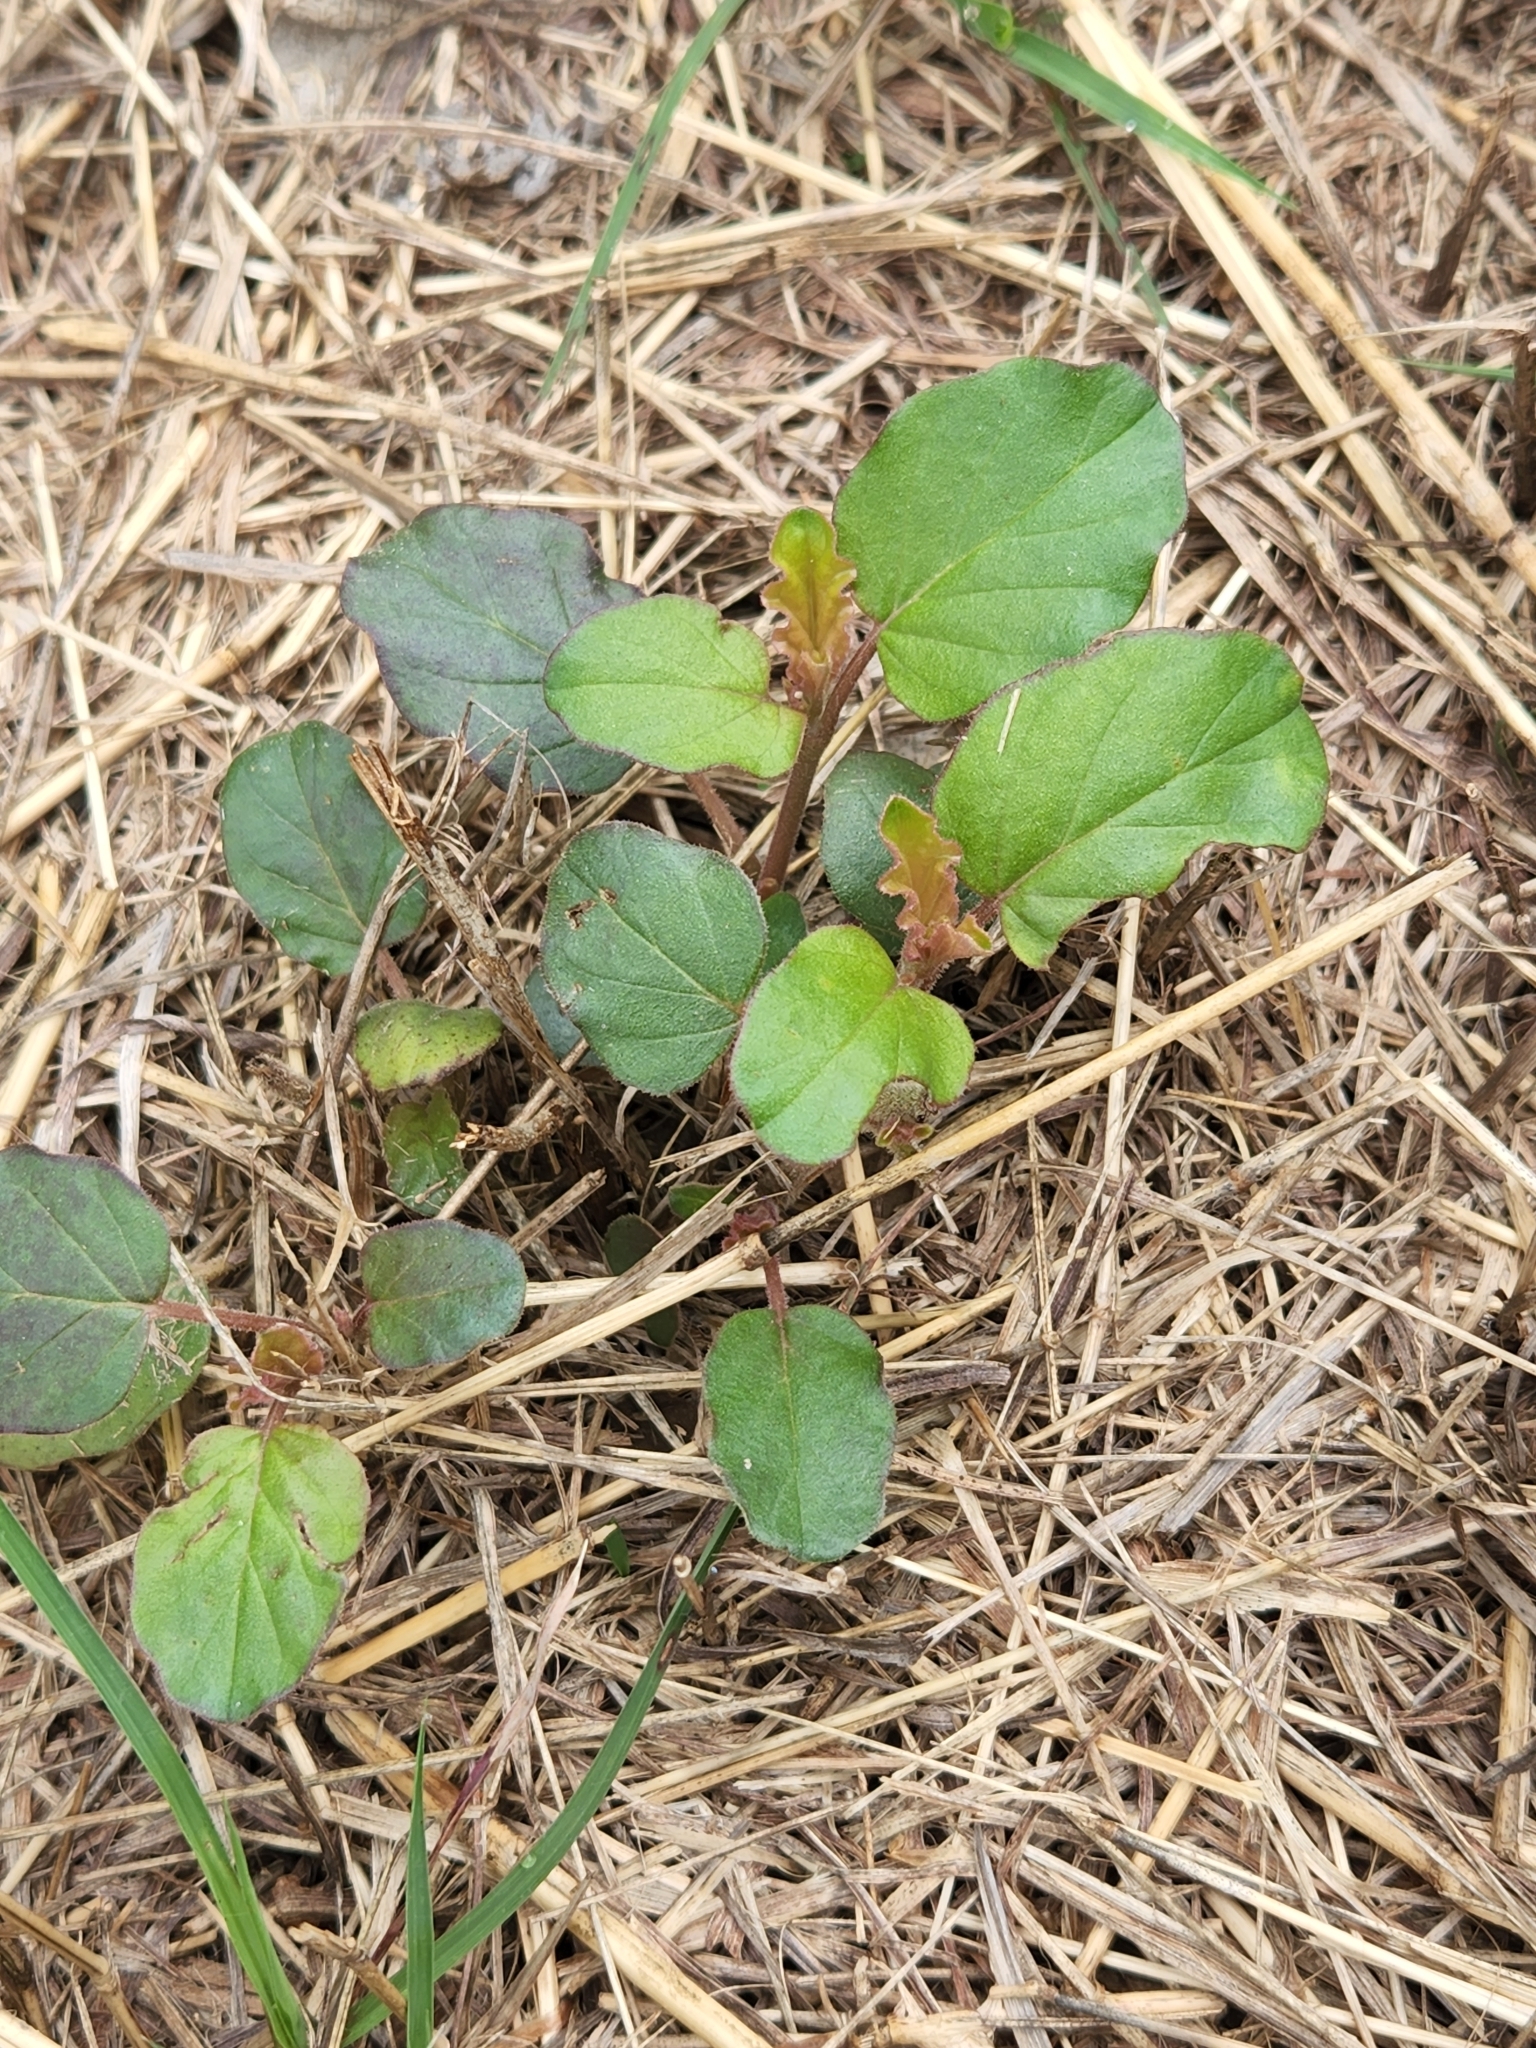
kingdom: Plantae
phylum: Tracheophyta
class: Magnoliopsida
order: Caryophyllales
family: Nyctaginaceae
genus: Boerhavia
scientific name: Boerhavia coccinea
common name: Scarlet spiderling
